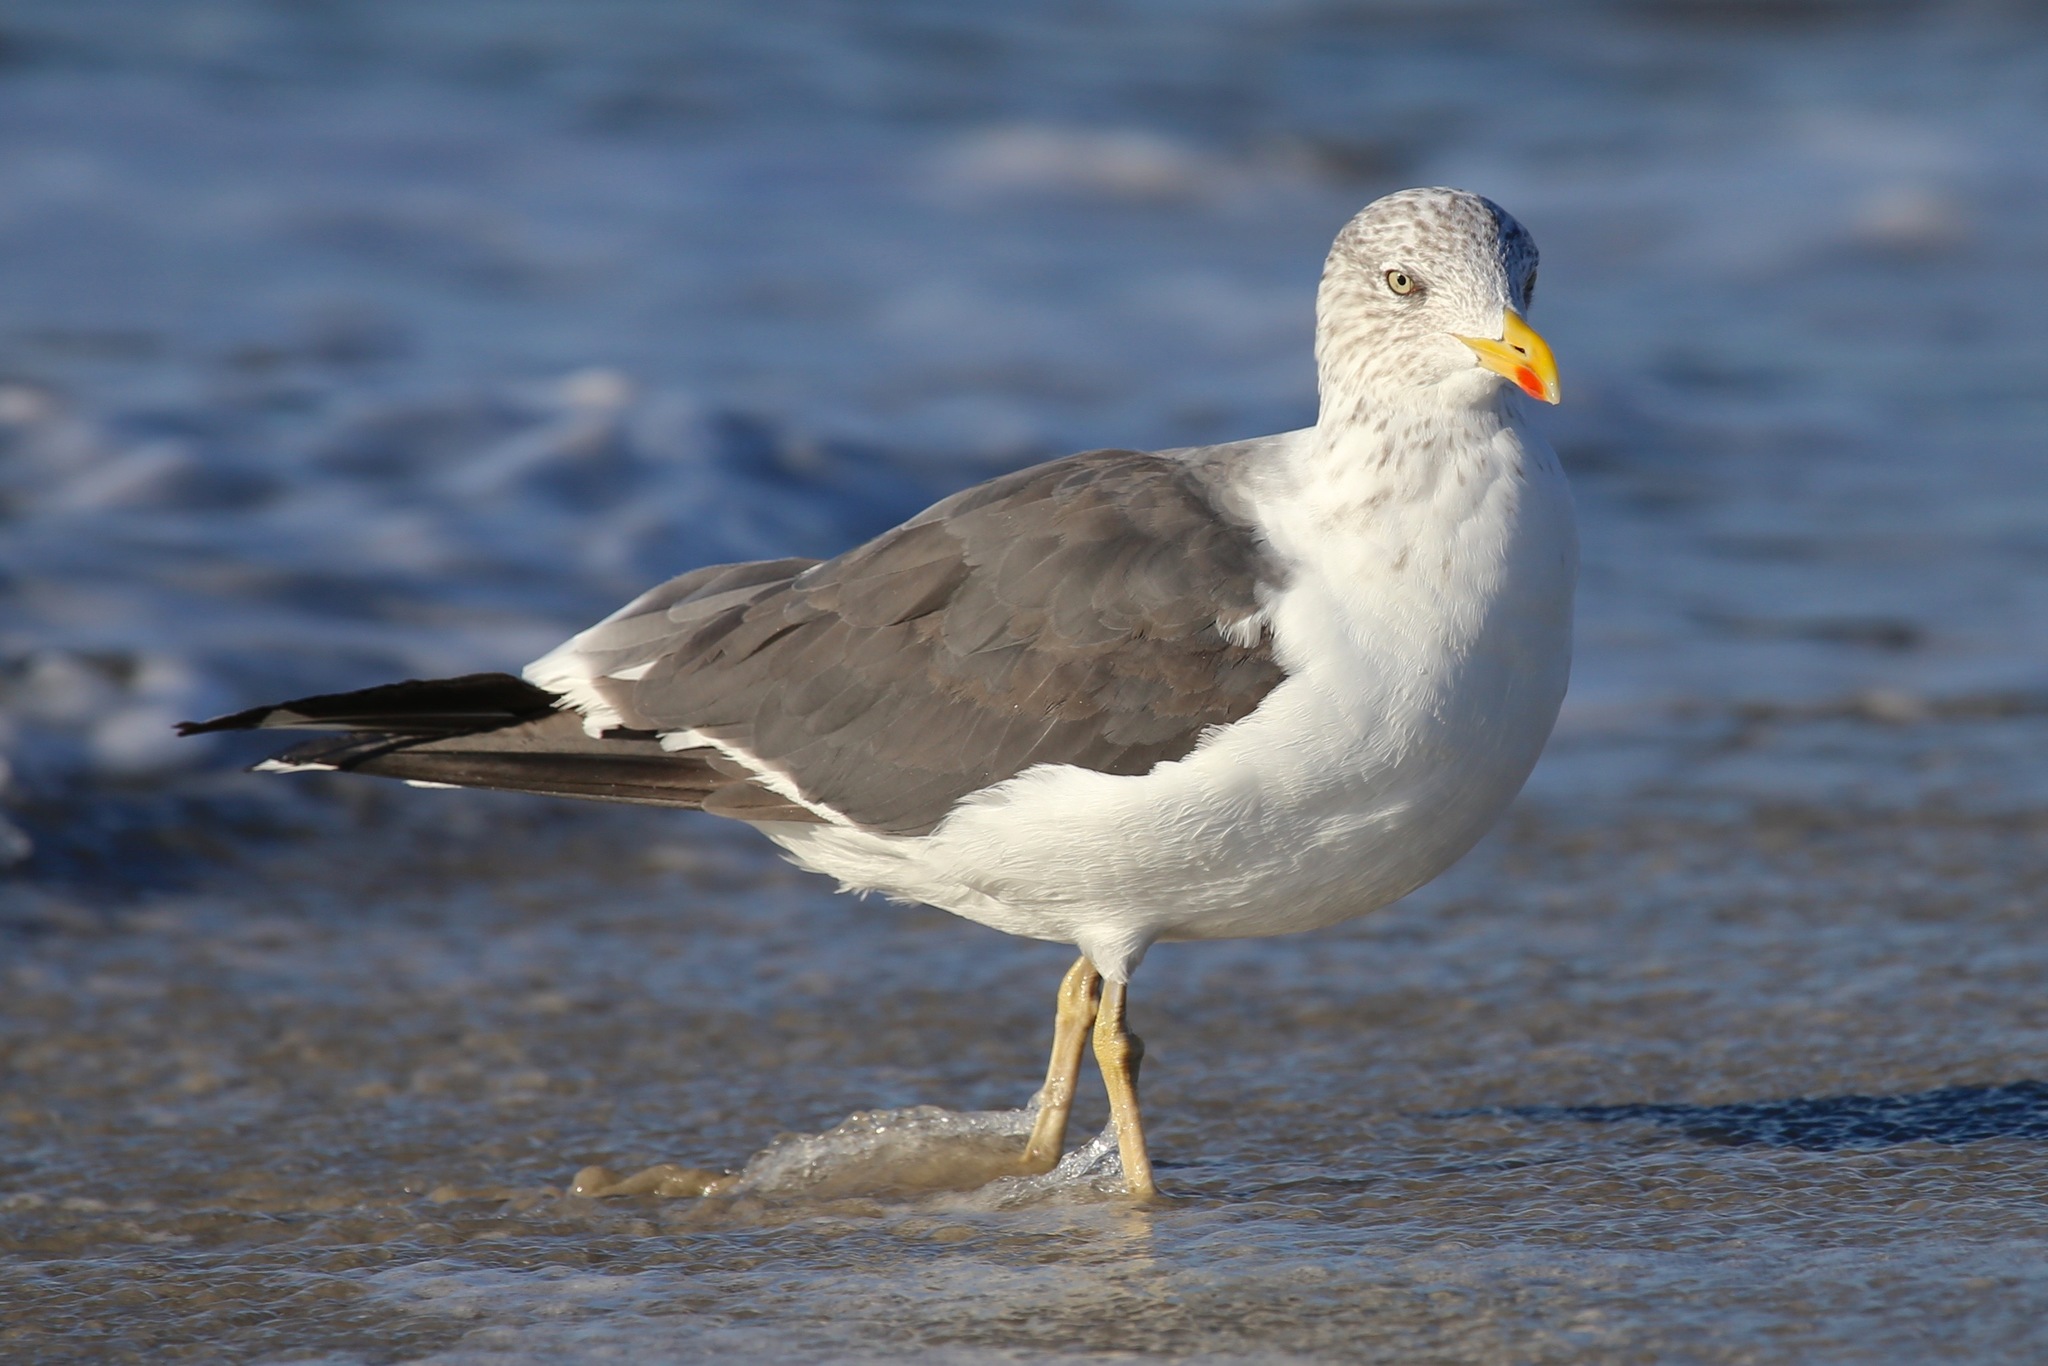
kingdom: Animalia
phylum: Chordata
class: Aves
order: Charadriiformes
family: Laridae
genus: Larus
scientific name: Larus fuscus
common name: Lesser black-backed gull
